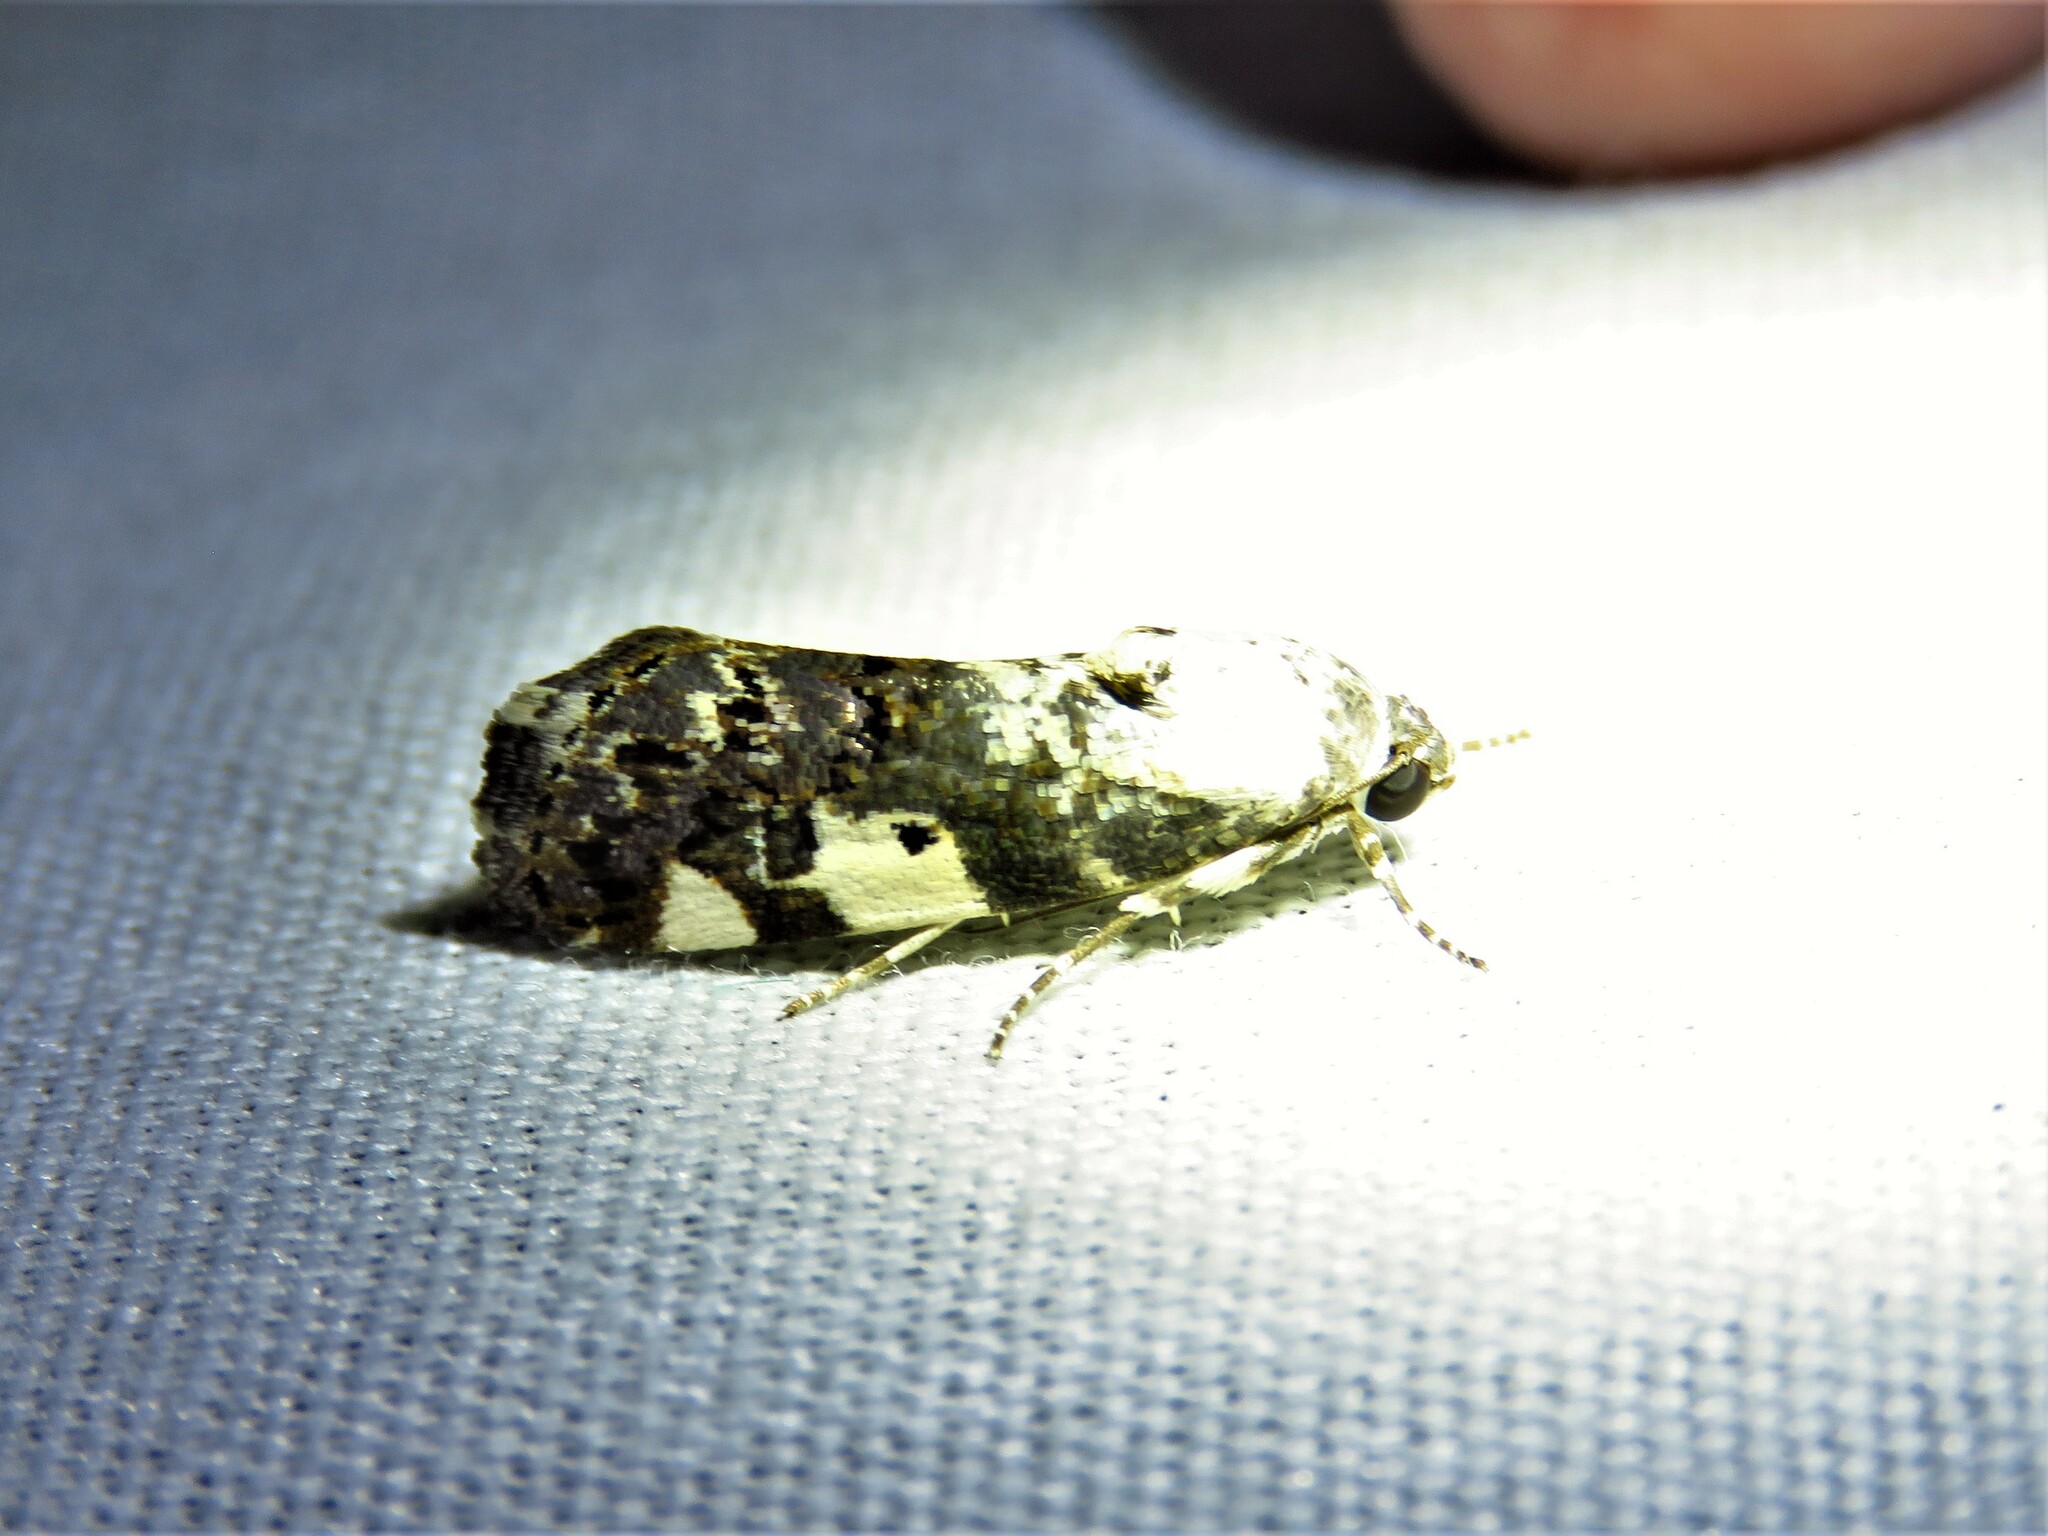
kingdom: Animalia
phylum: Arthropoda
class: Insecta
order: Lepidoptera
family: Noctuidae
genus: Acontia
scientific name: Acontia aprica
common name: Nun
